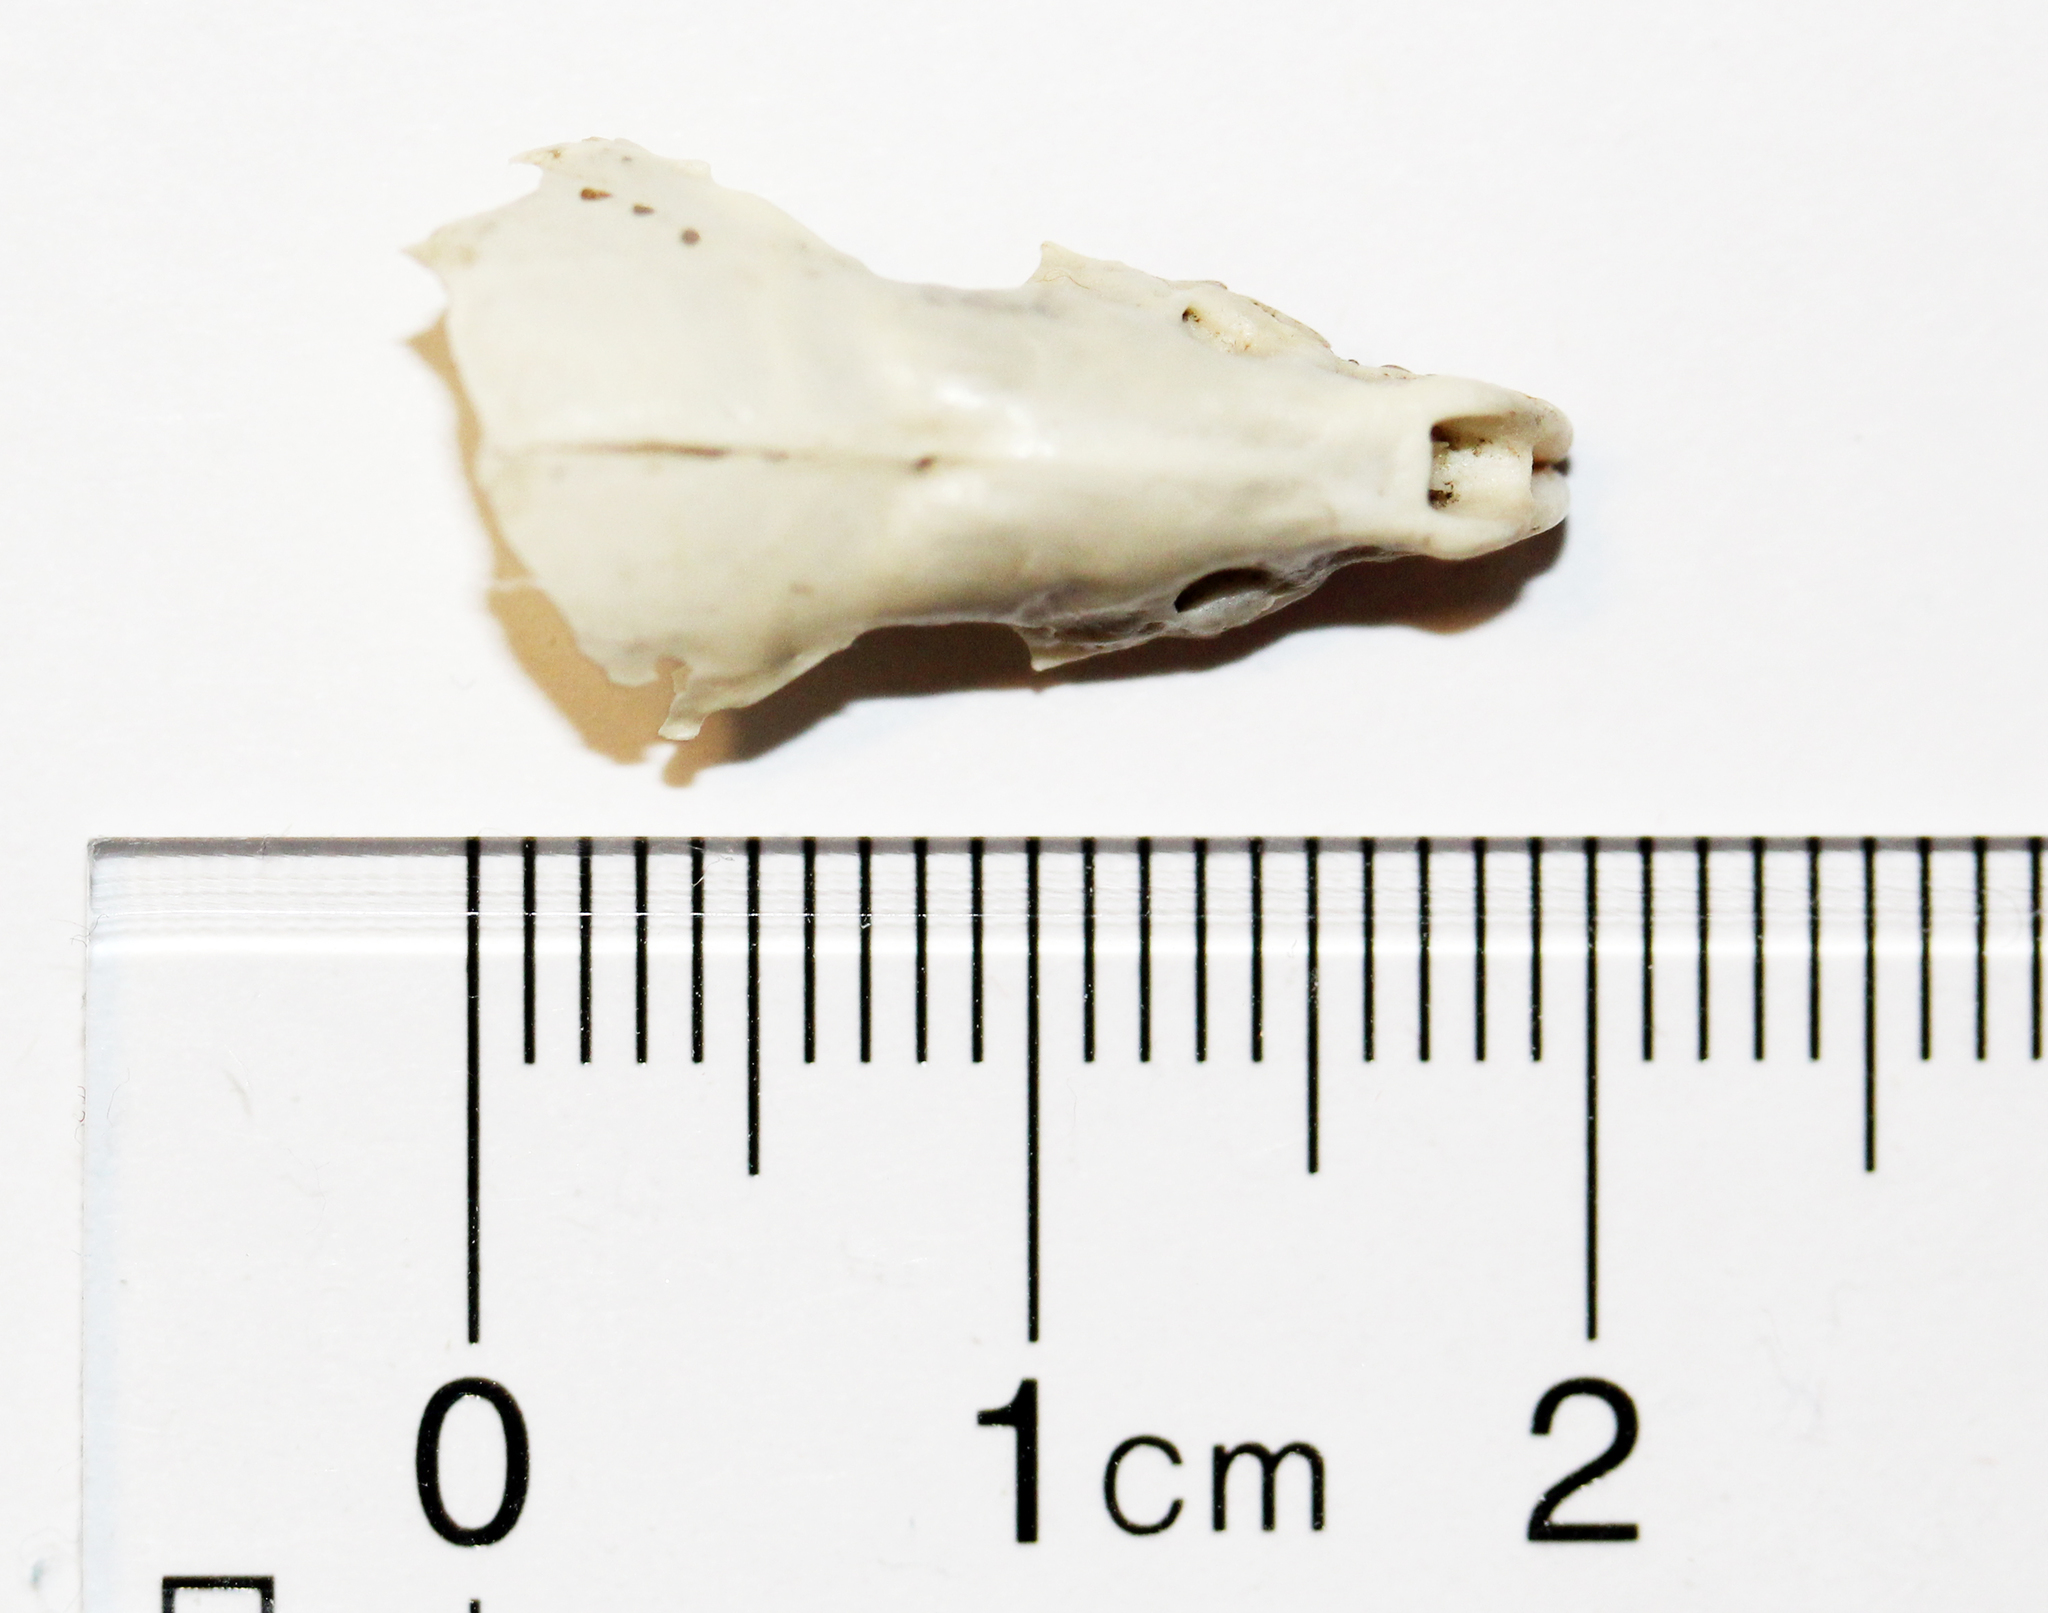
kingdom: Animalia
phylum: Chordata
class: Mammalia
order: Soricomorpha
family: Soricidae
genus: Blarina
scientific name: Blarina brevicauda
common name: Northern short-tailed shrew
